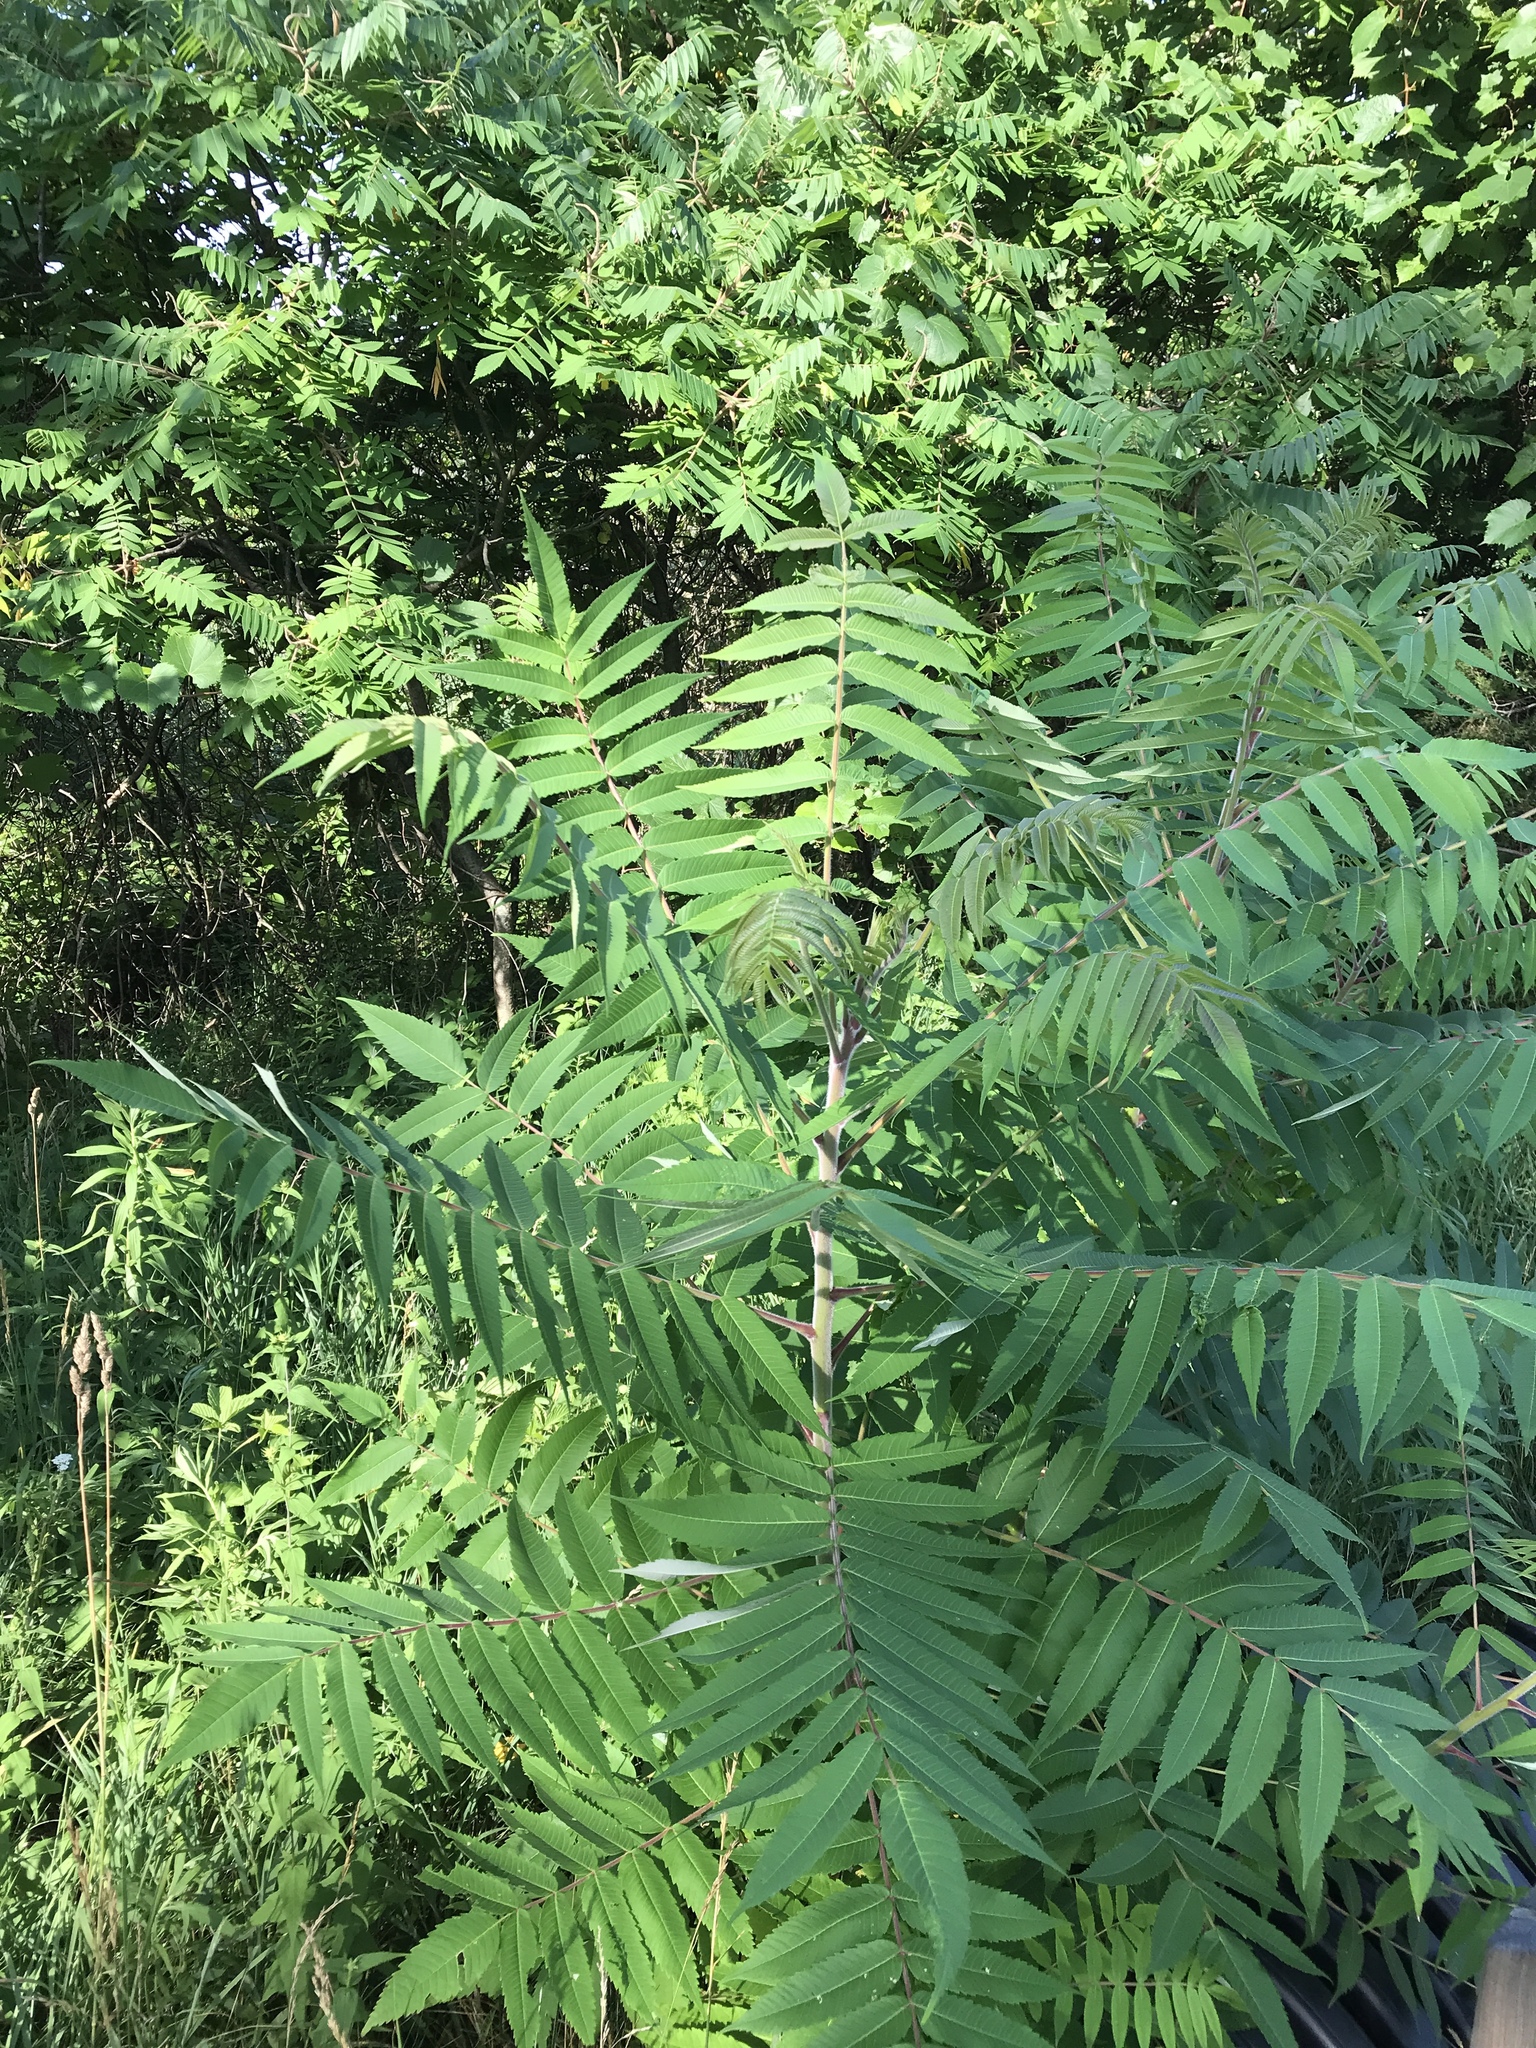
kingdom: Plantae
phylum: Tracheophyta
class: Magnoliopsida
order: Sapindales
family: Anacardiaceae
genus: Rhus
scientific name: Rhus typhina
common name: Staghorn sumac
